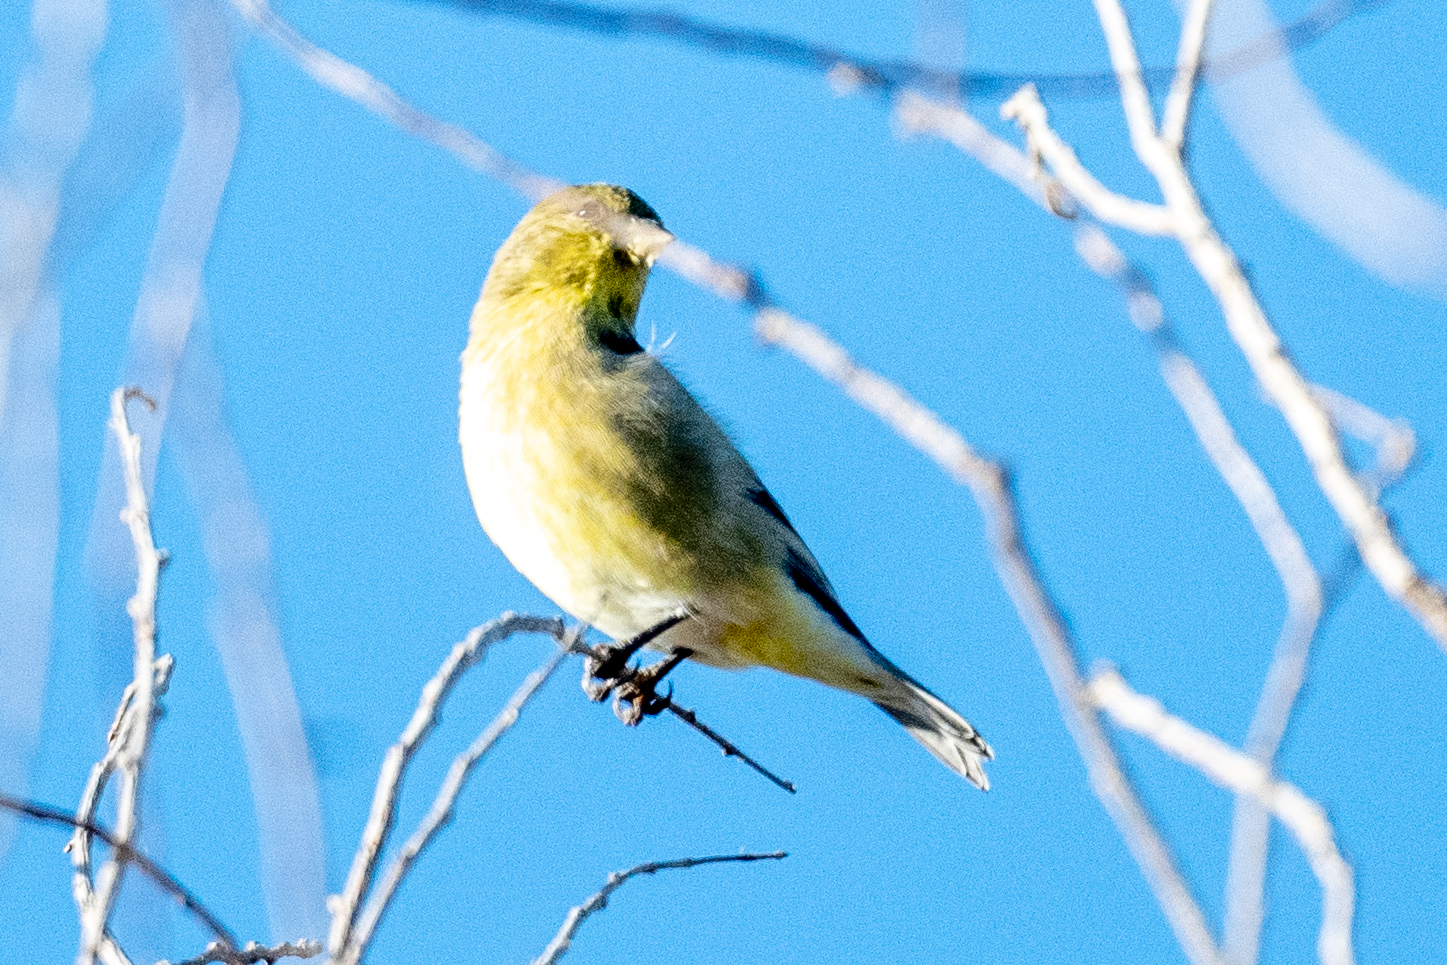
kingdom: Animalia
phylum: Chordata
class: Aves
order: Passeriformes
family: Fringillidae
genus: Spinus
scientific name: Spinus psaltria
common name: Lesser goldfinch
